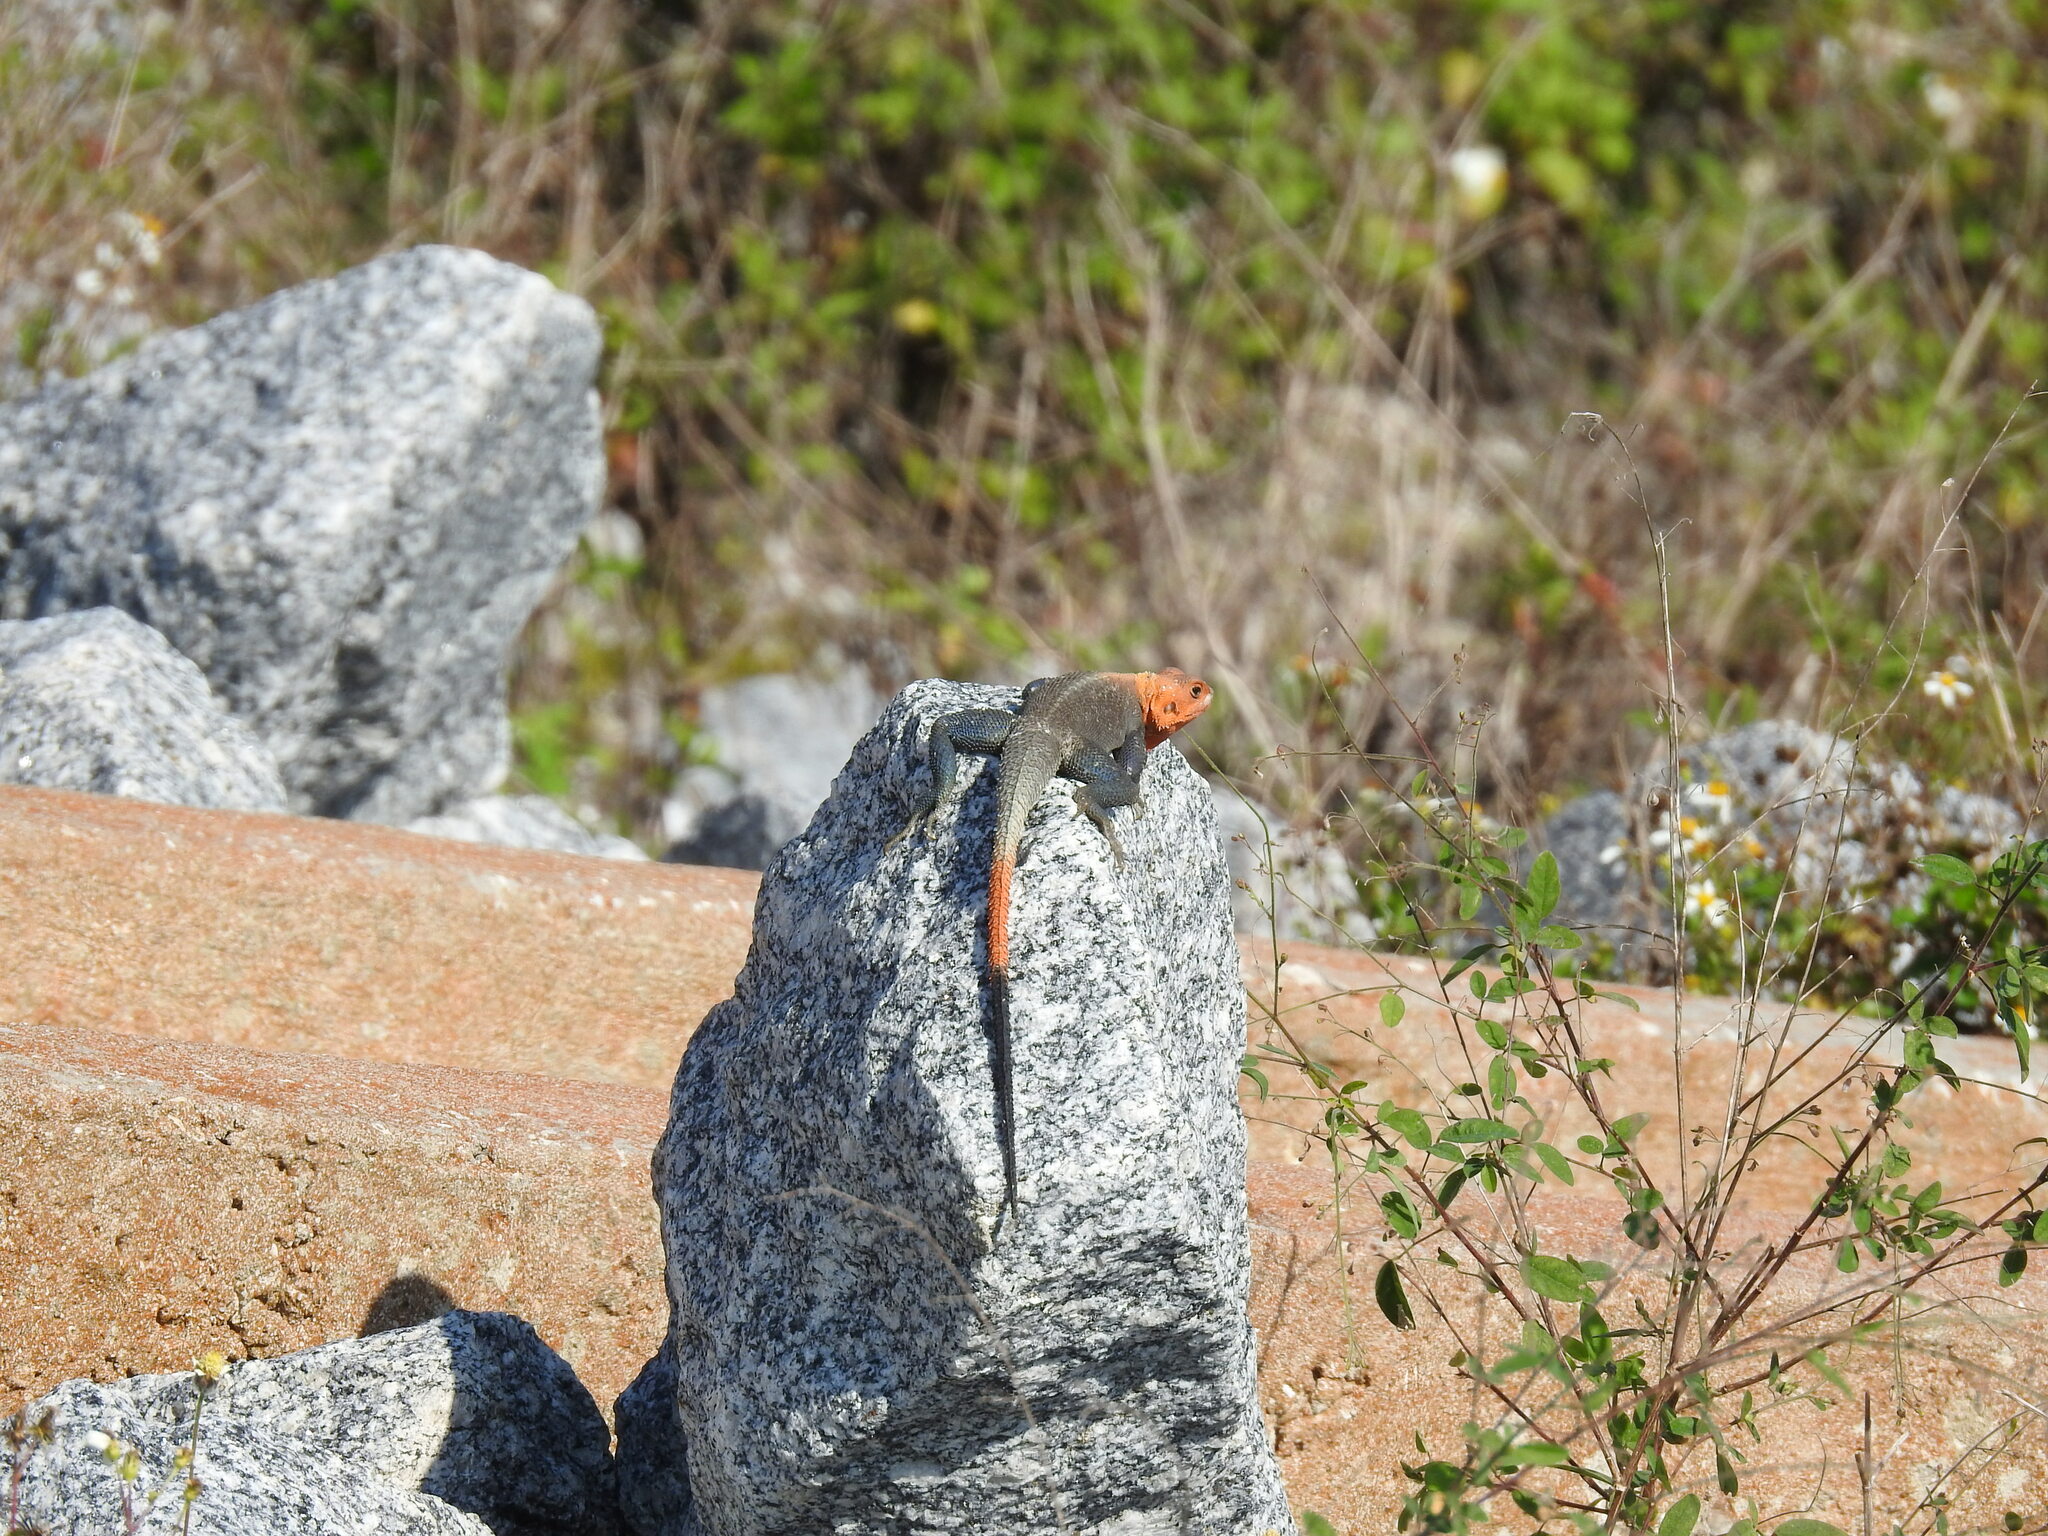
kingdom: Animalia
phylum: Chordata
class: Squamata
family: Agamidae
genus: Agama
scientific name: Agama picticauda
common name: Red-headed agama
